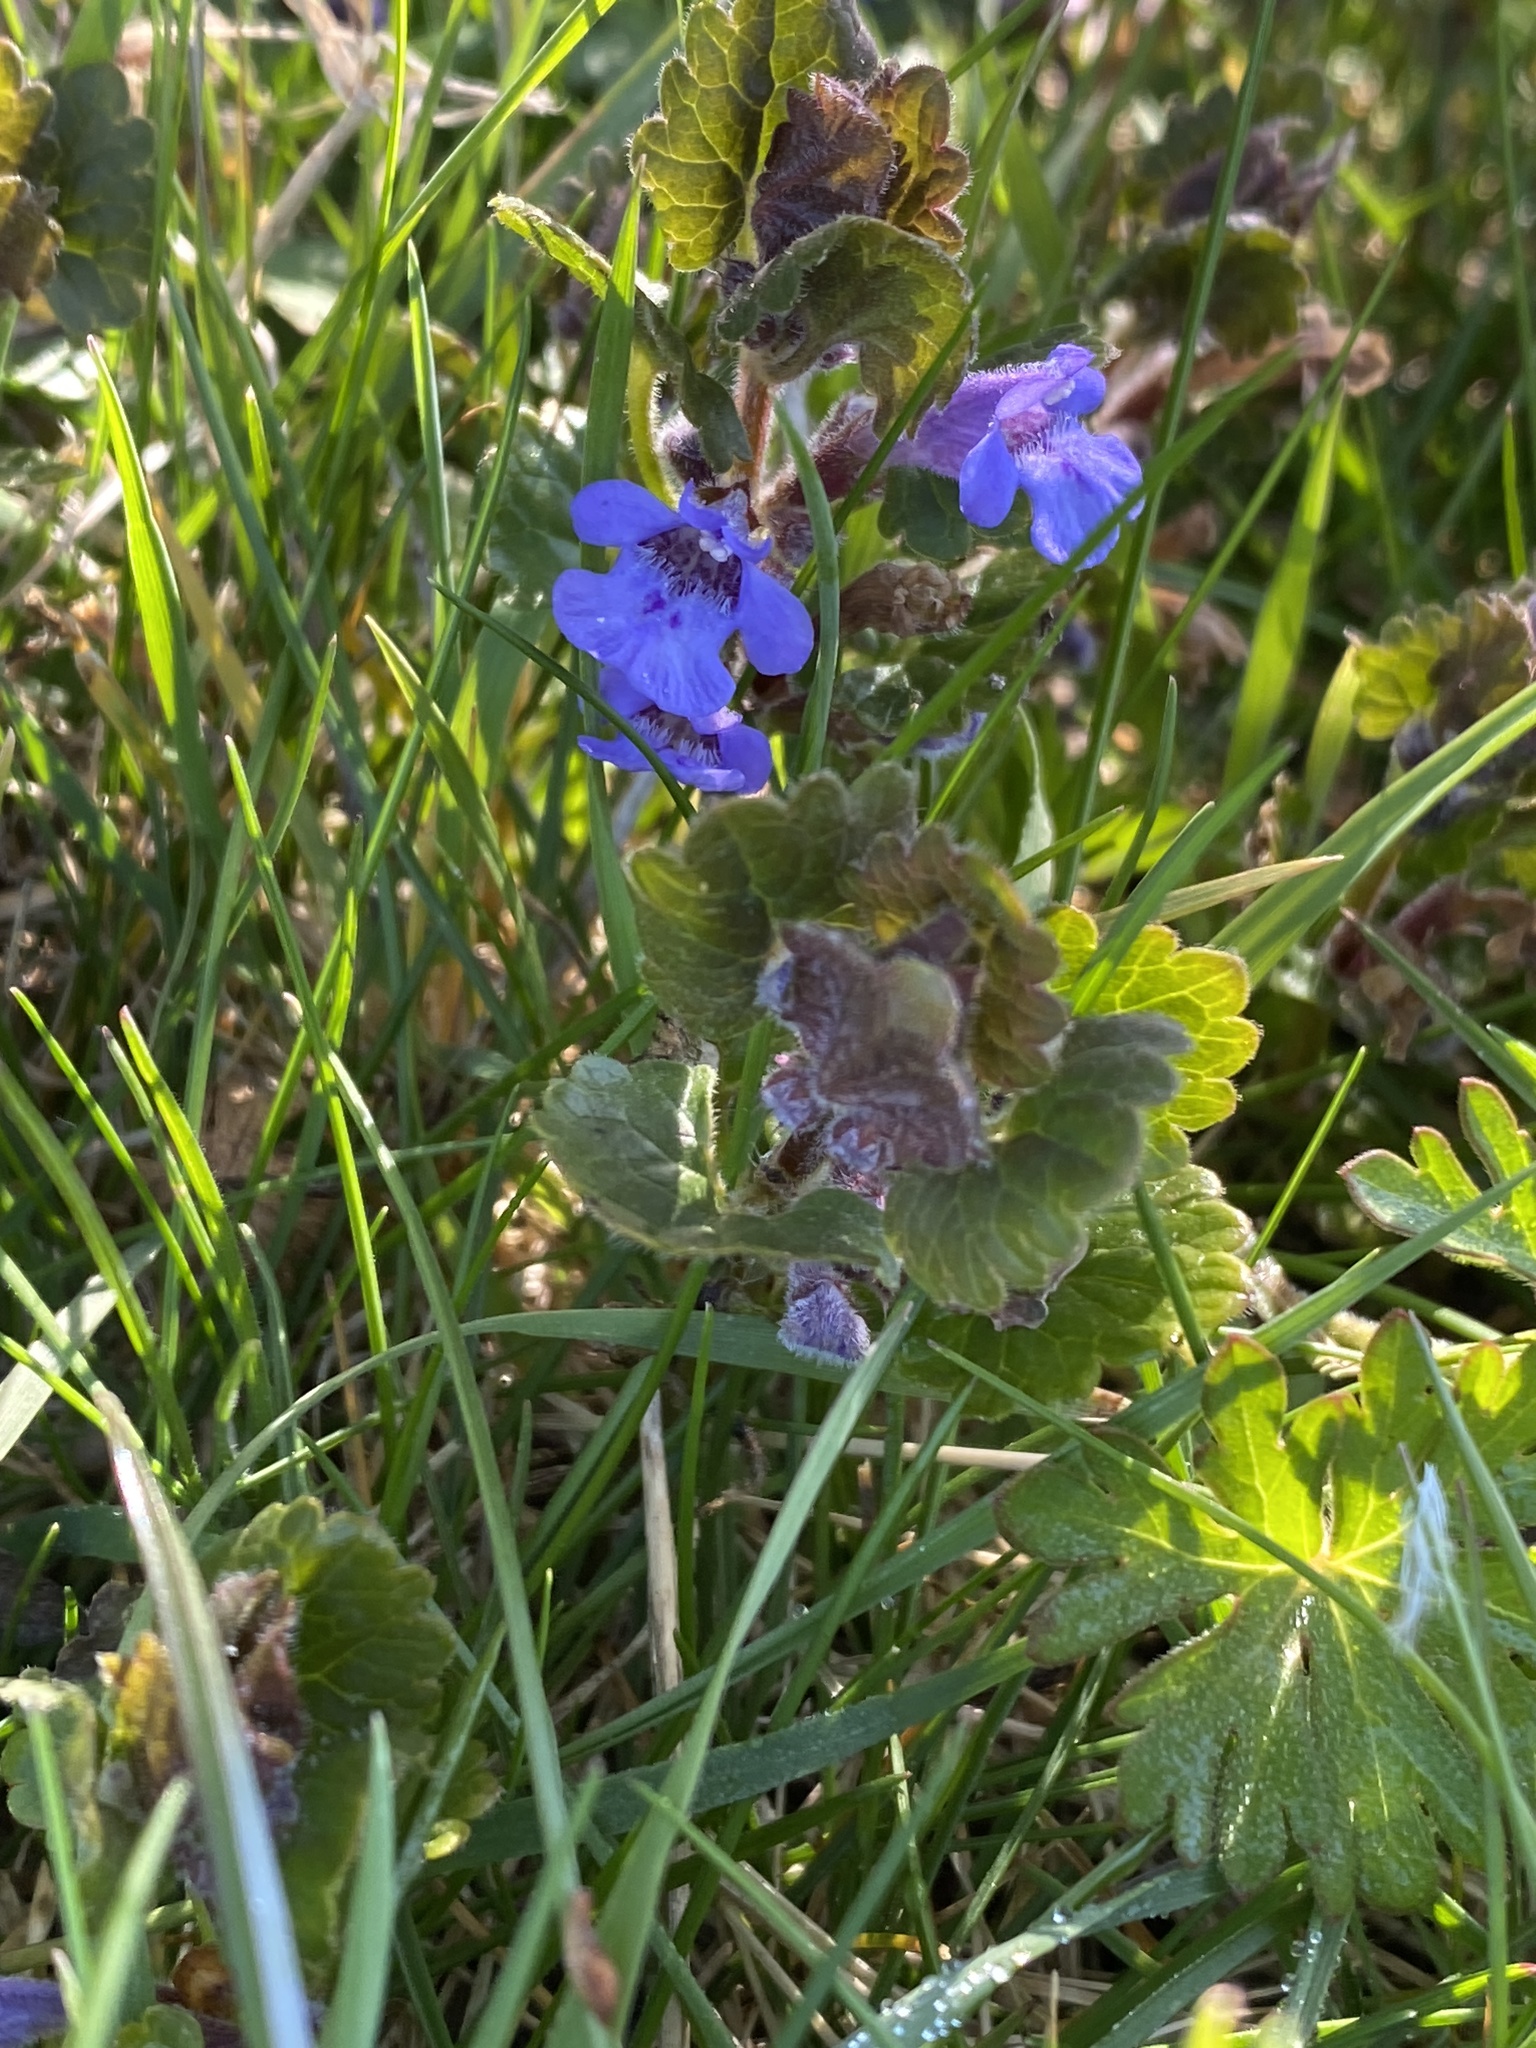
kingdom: Plantae
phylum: Tracheophyta
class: Magnoliopsida
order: Lamiales
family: Lamiaceae
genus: Glechoma
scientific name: Glechoma hederacea
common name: Ground ivy
